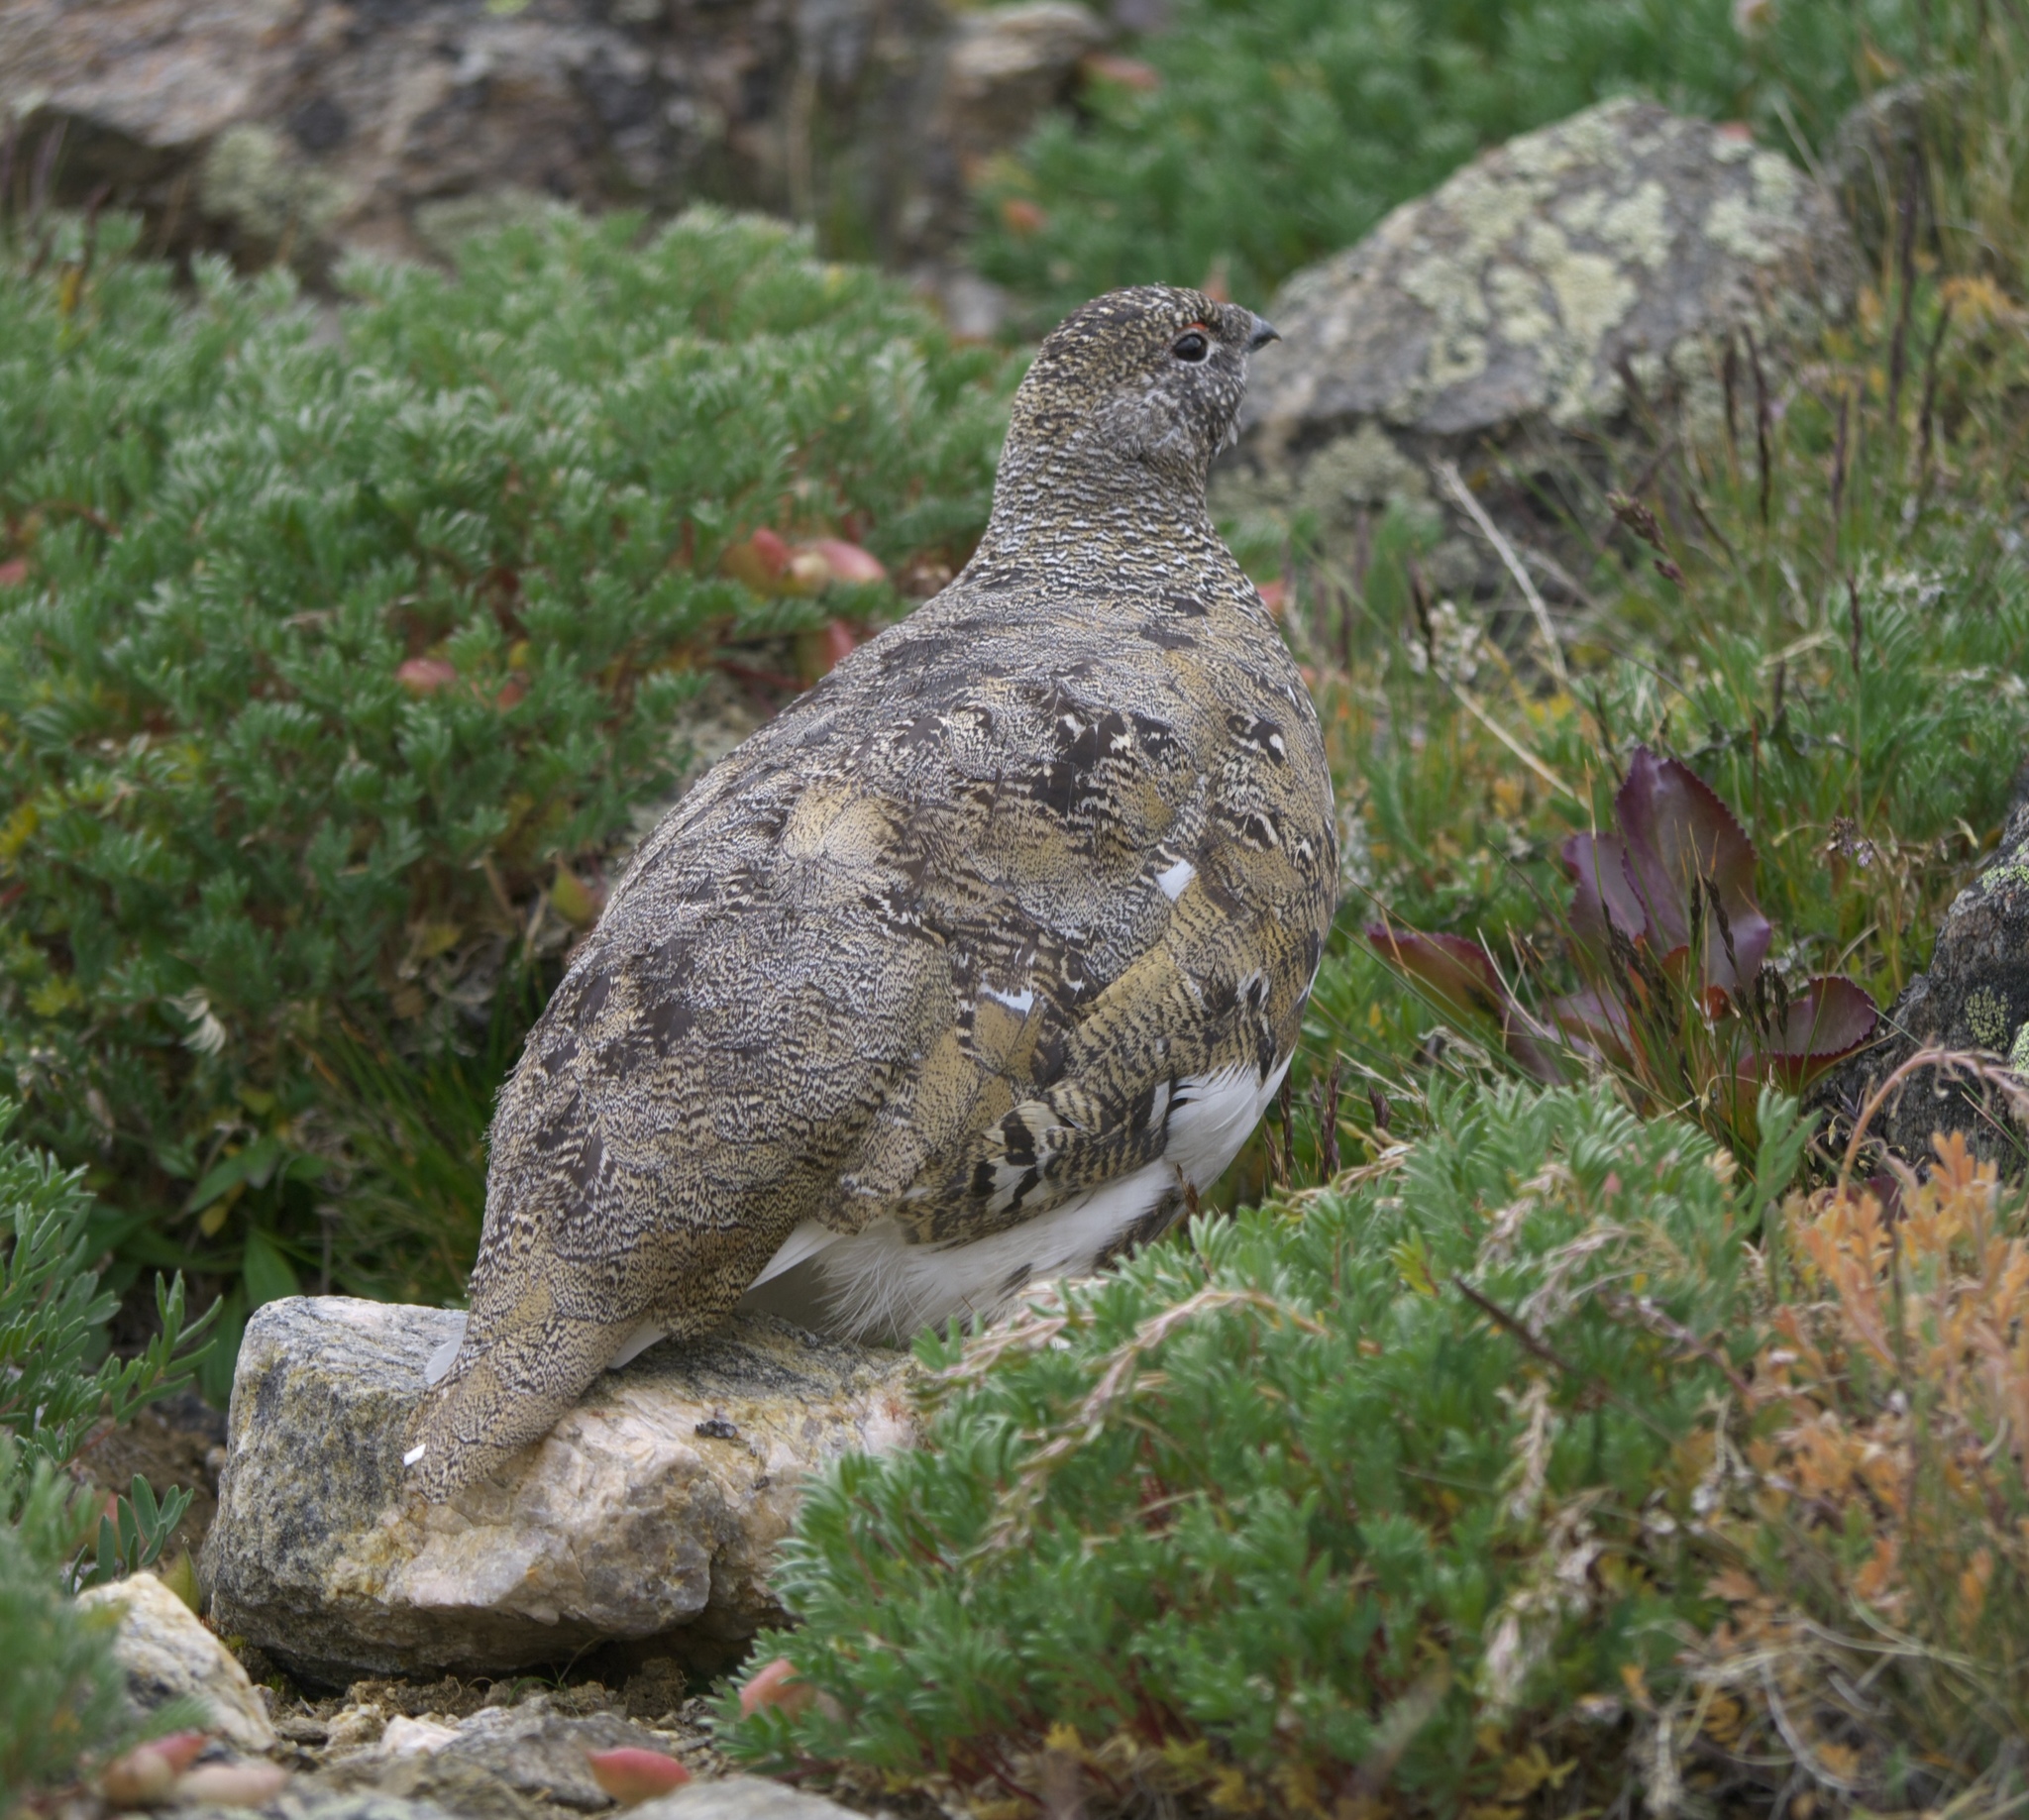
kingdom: Animalia
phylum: Chordata
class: Aves
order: Galliformes
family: Phasianidae
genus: Lagopus
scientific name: Lagopus leucura
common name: White-tailed ptarmigan
